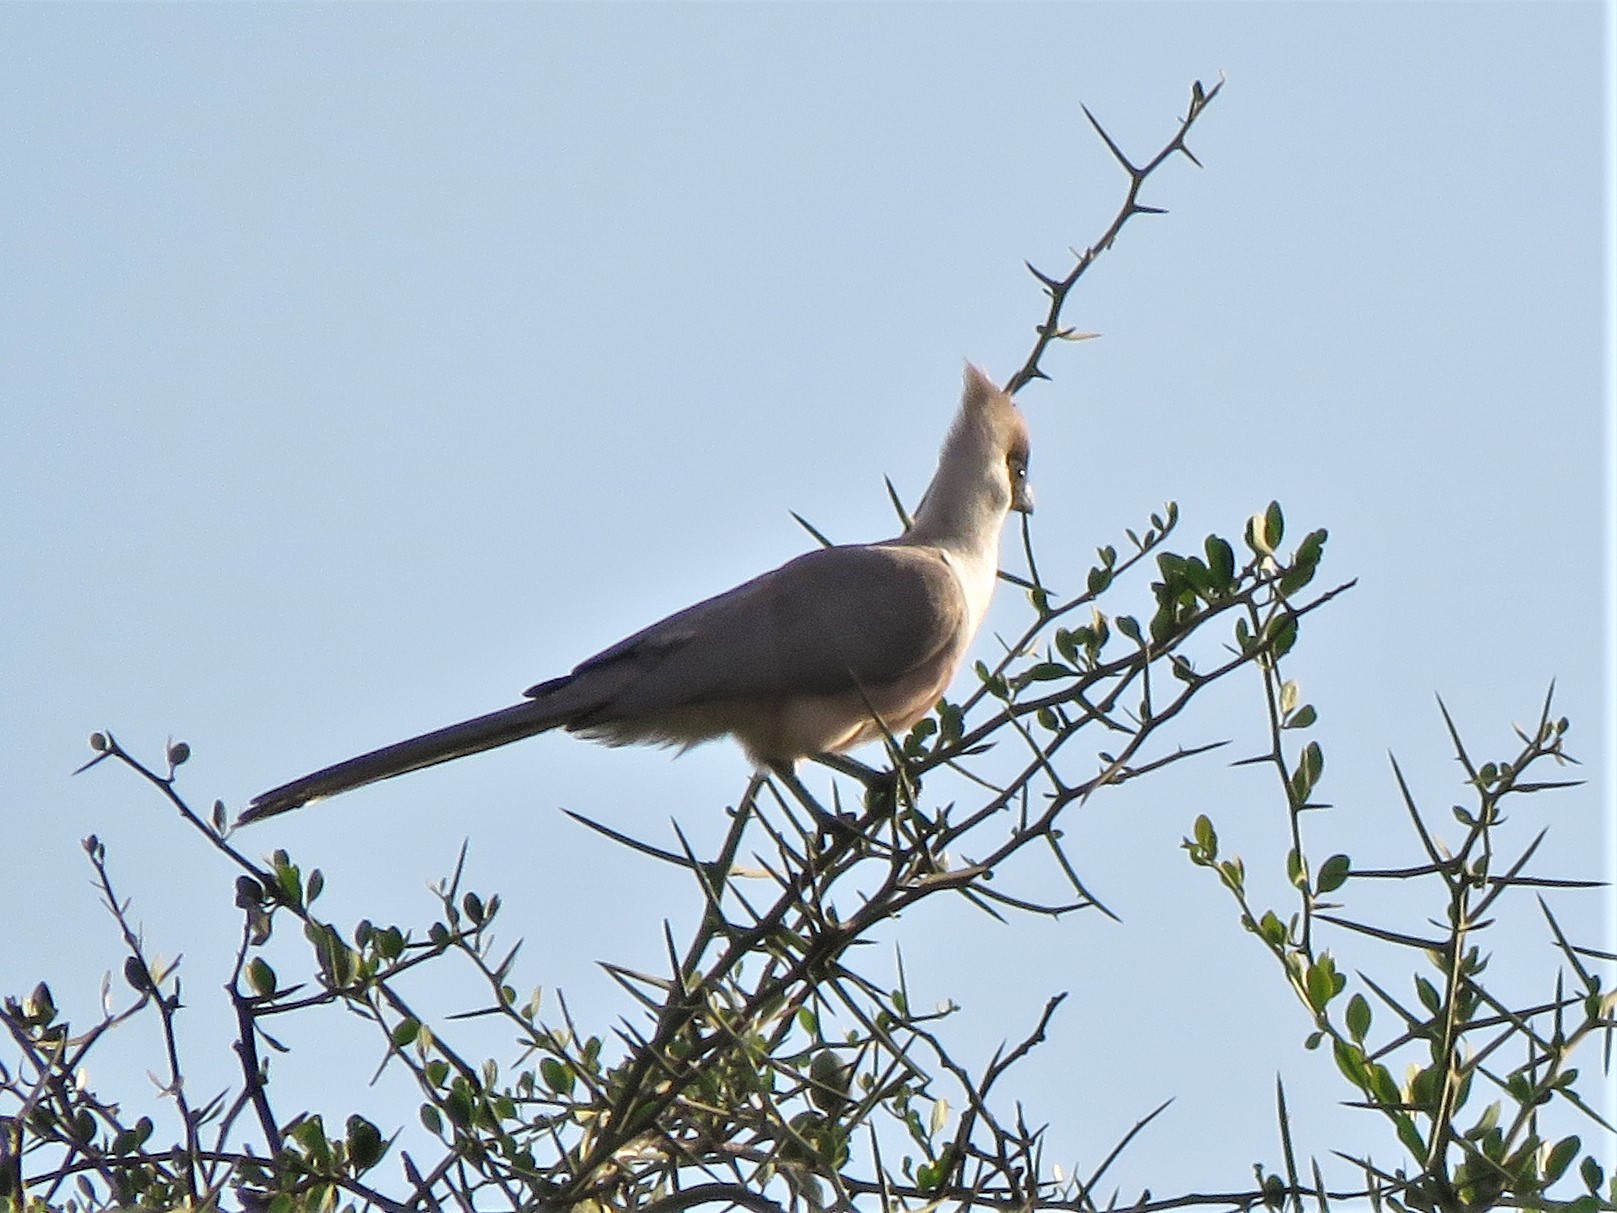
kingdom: Animalia
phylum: Chordata
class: Aves
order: Musophagiformes
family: Musophagidae
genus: Corythaixoides
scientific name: Corythaixoides personatus
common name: Bare-faced go-away-bird
